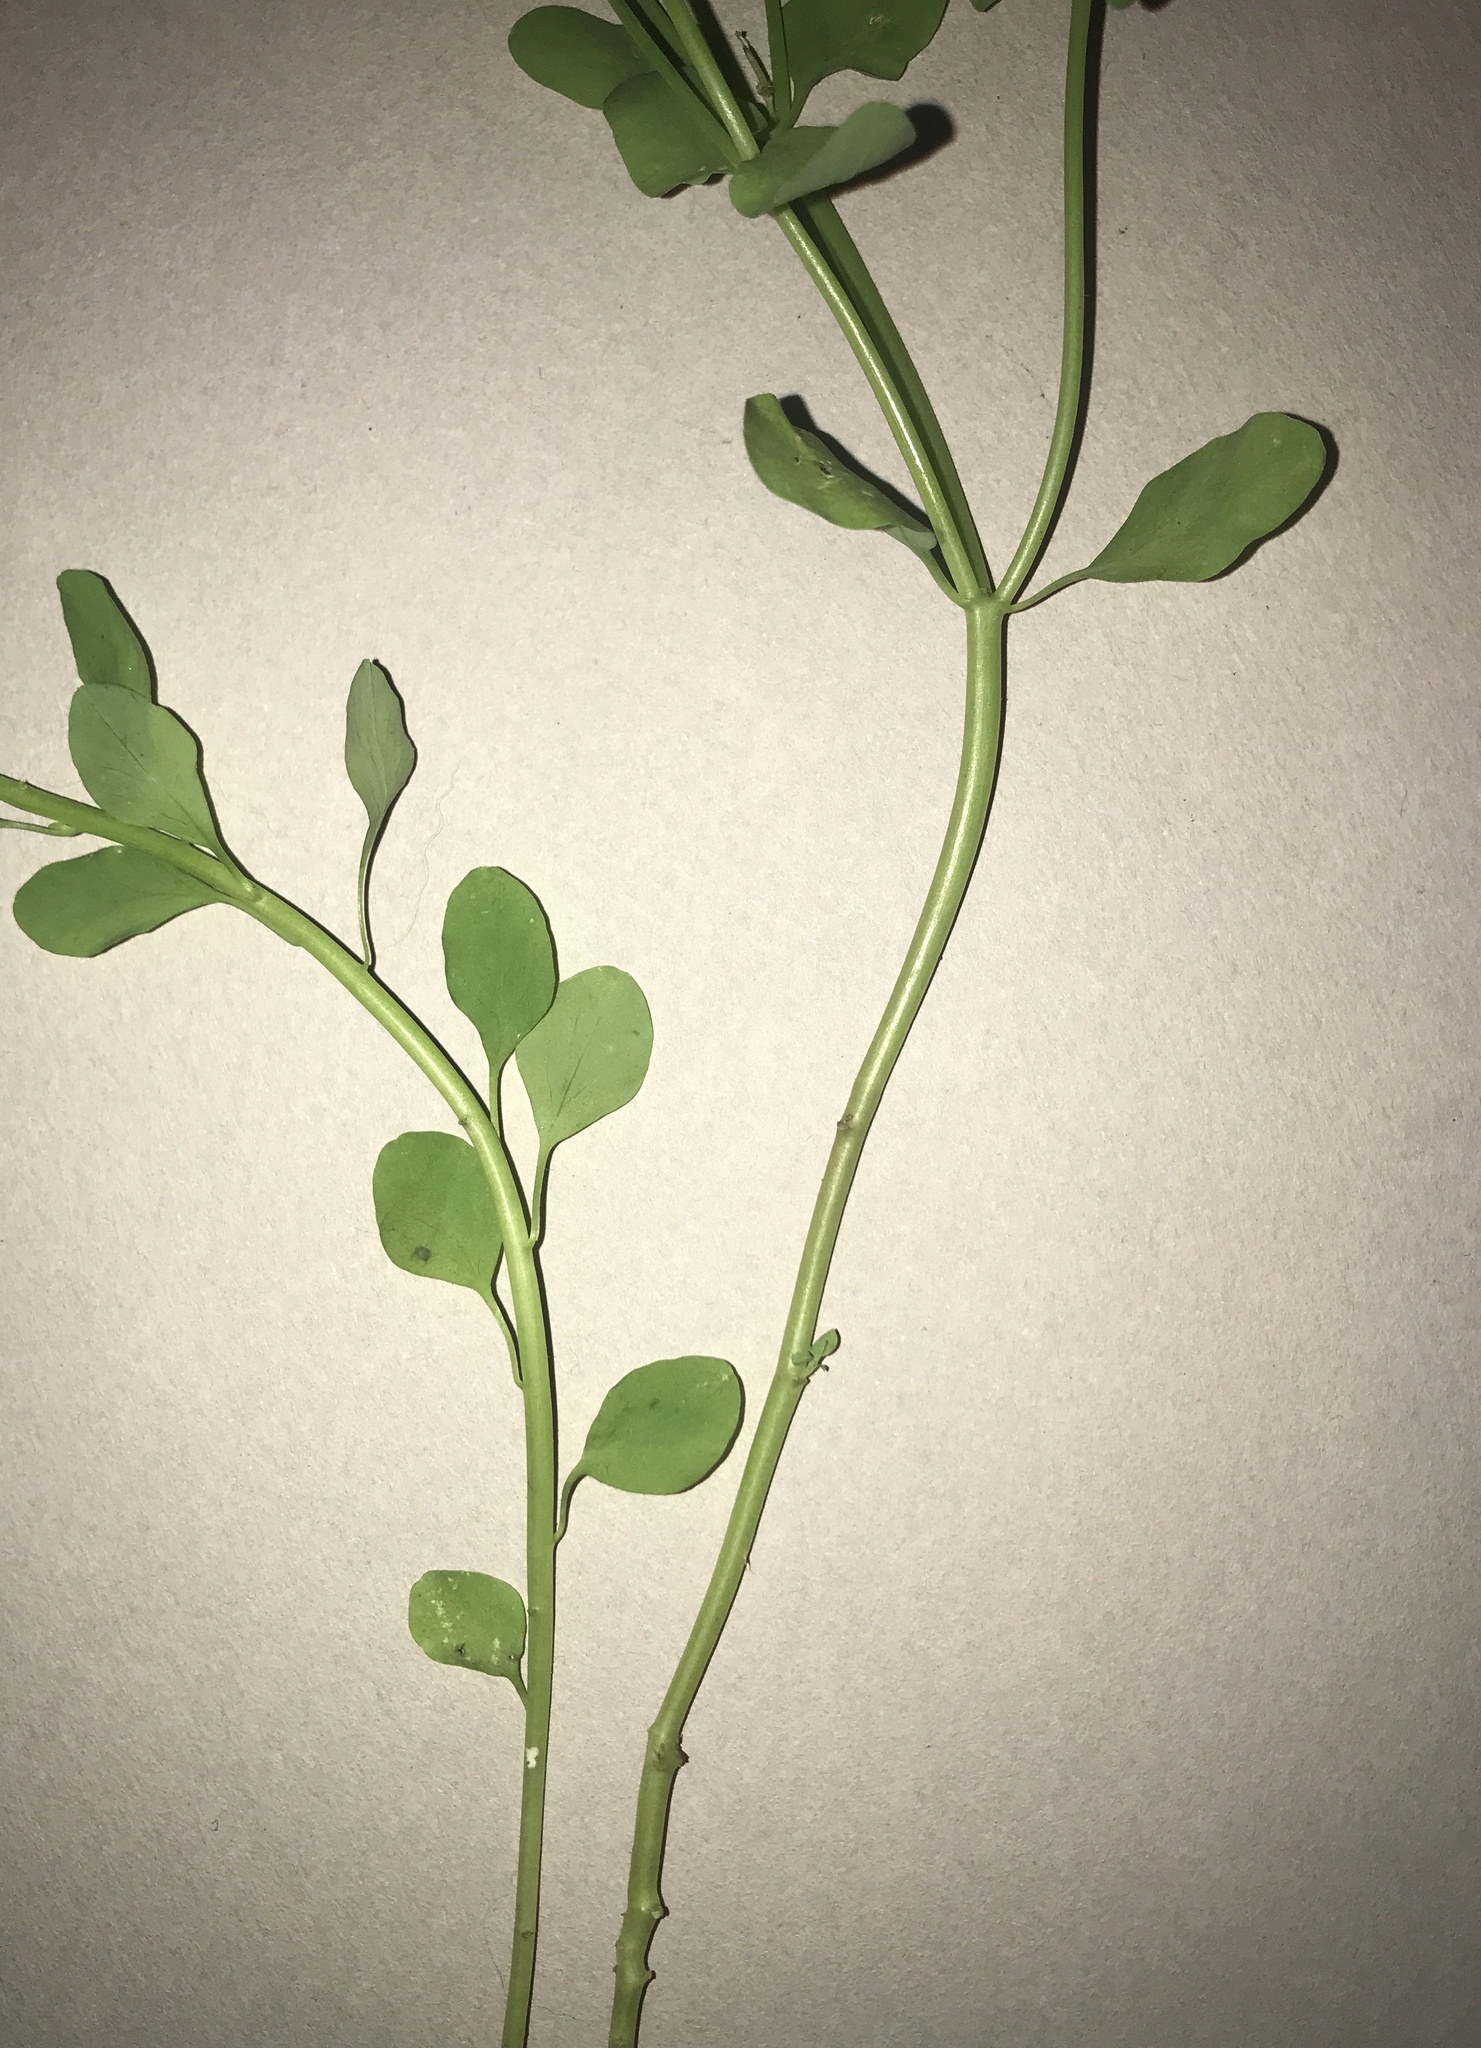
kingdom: Plantae
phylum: Tracheophyta
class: Magnoliopsida
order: Malpighiales
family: Euphorbiaceae
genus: Euphorbia
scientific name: Euphorbia peplus
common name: Petty spurge
